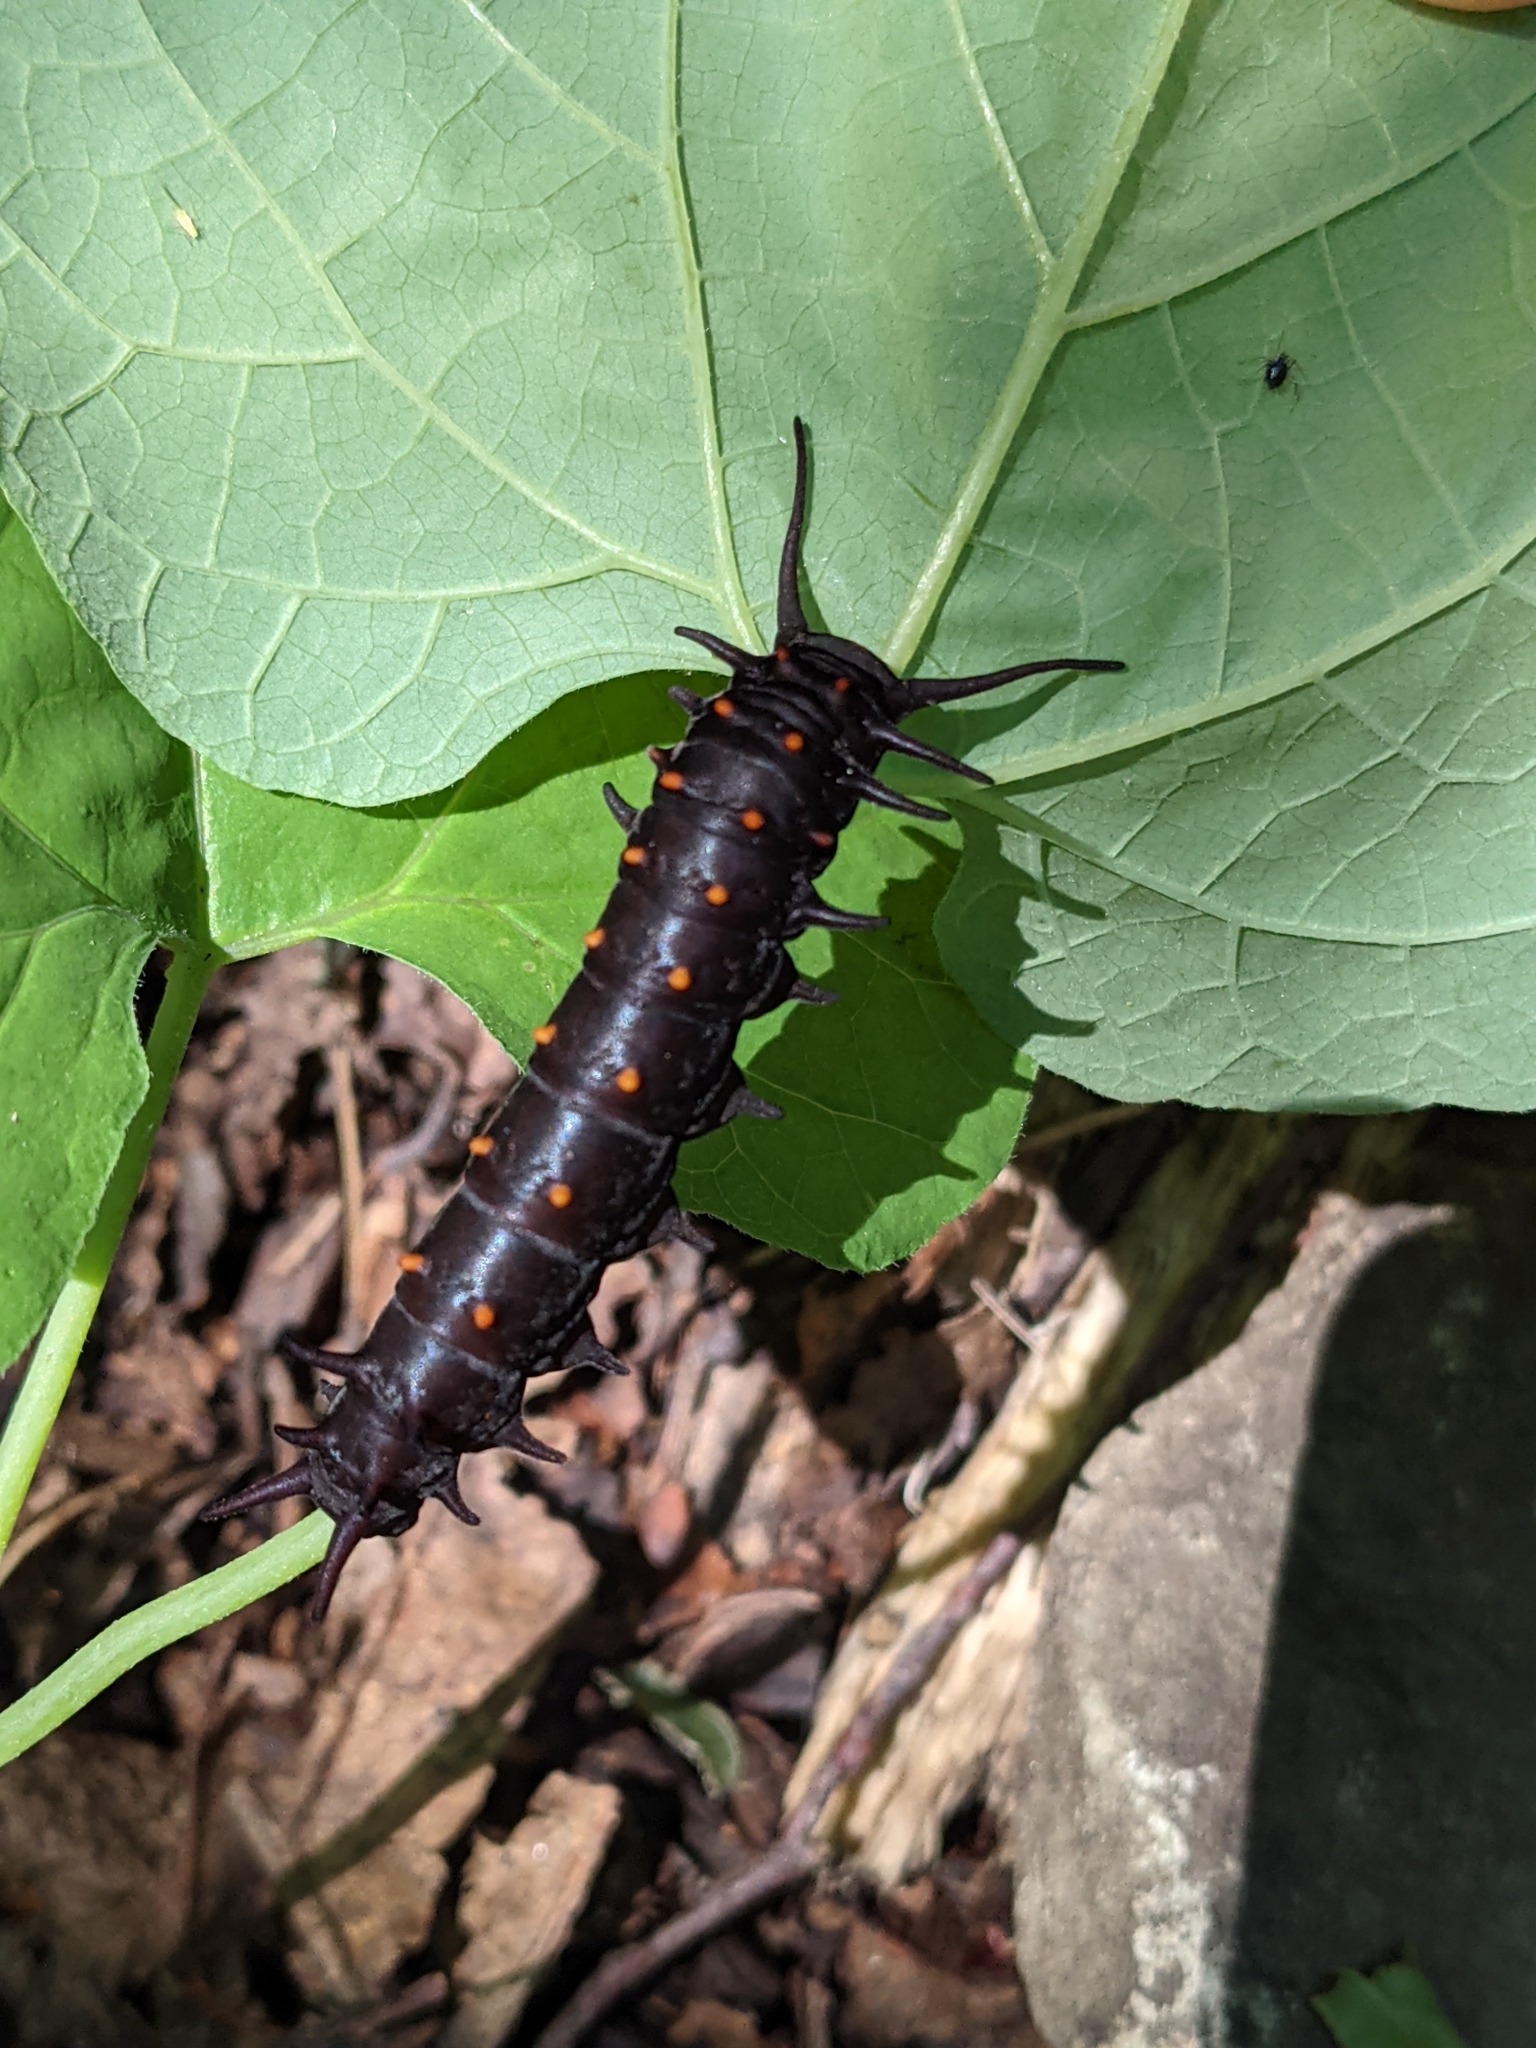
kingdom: Animalia
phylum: Arthropoda
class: Insecta
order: Lepidoptera
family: Papilionidae
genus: Battus
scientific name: Battus philenor
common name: Pipevine swallowtail
